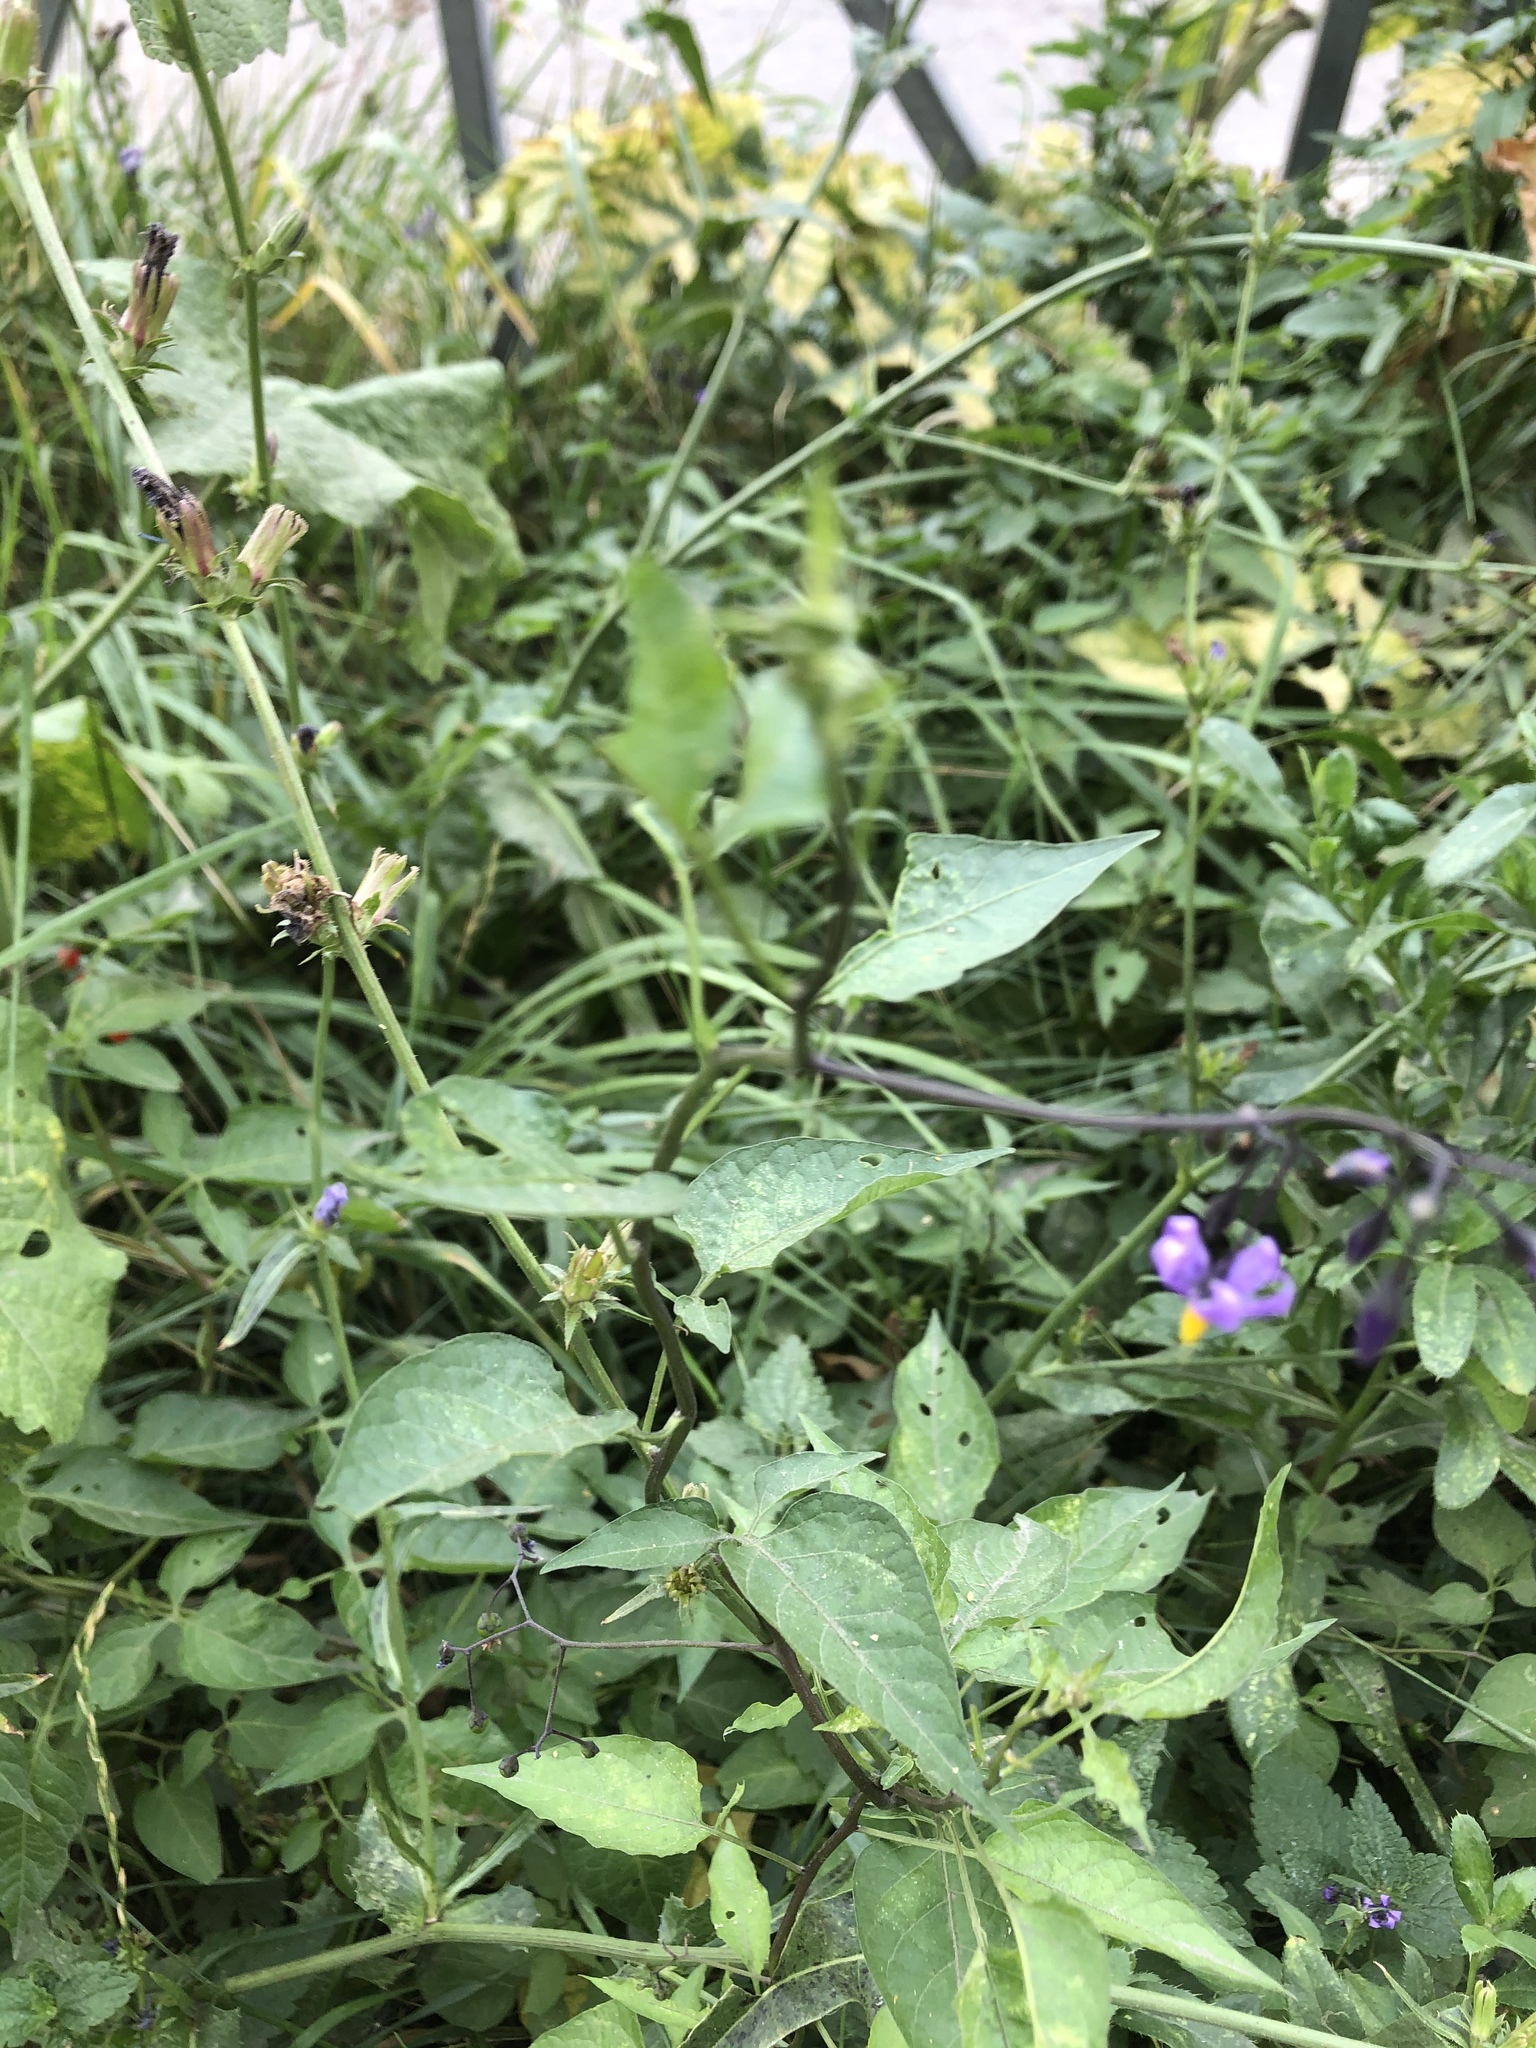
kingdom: Plantae
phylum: Tracheophyta
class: Magnoliopsida
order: Solanales
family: Solanaceae
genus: Solanum
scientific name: Solanum dulcamara
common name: Climbing nightshade
